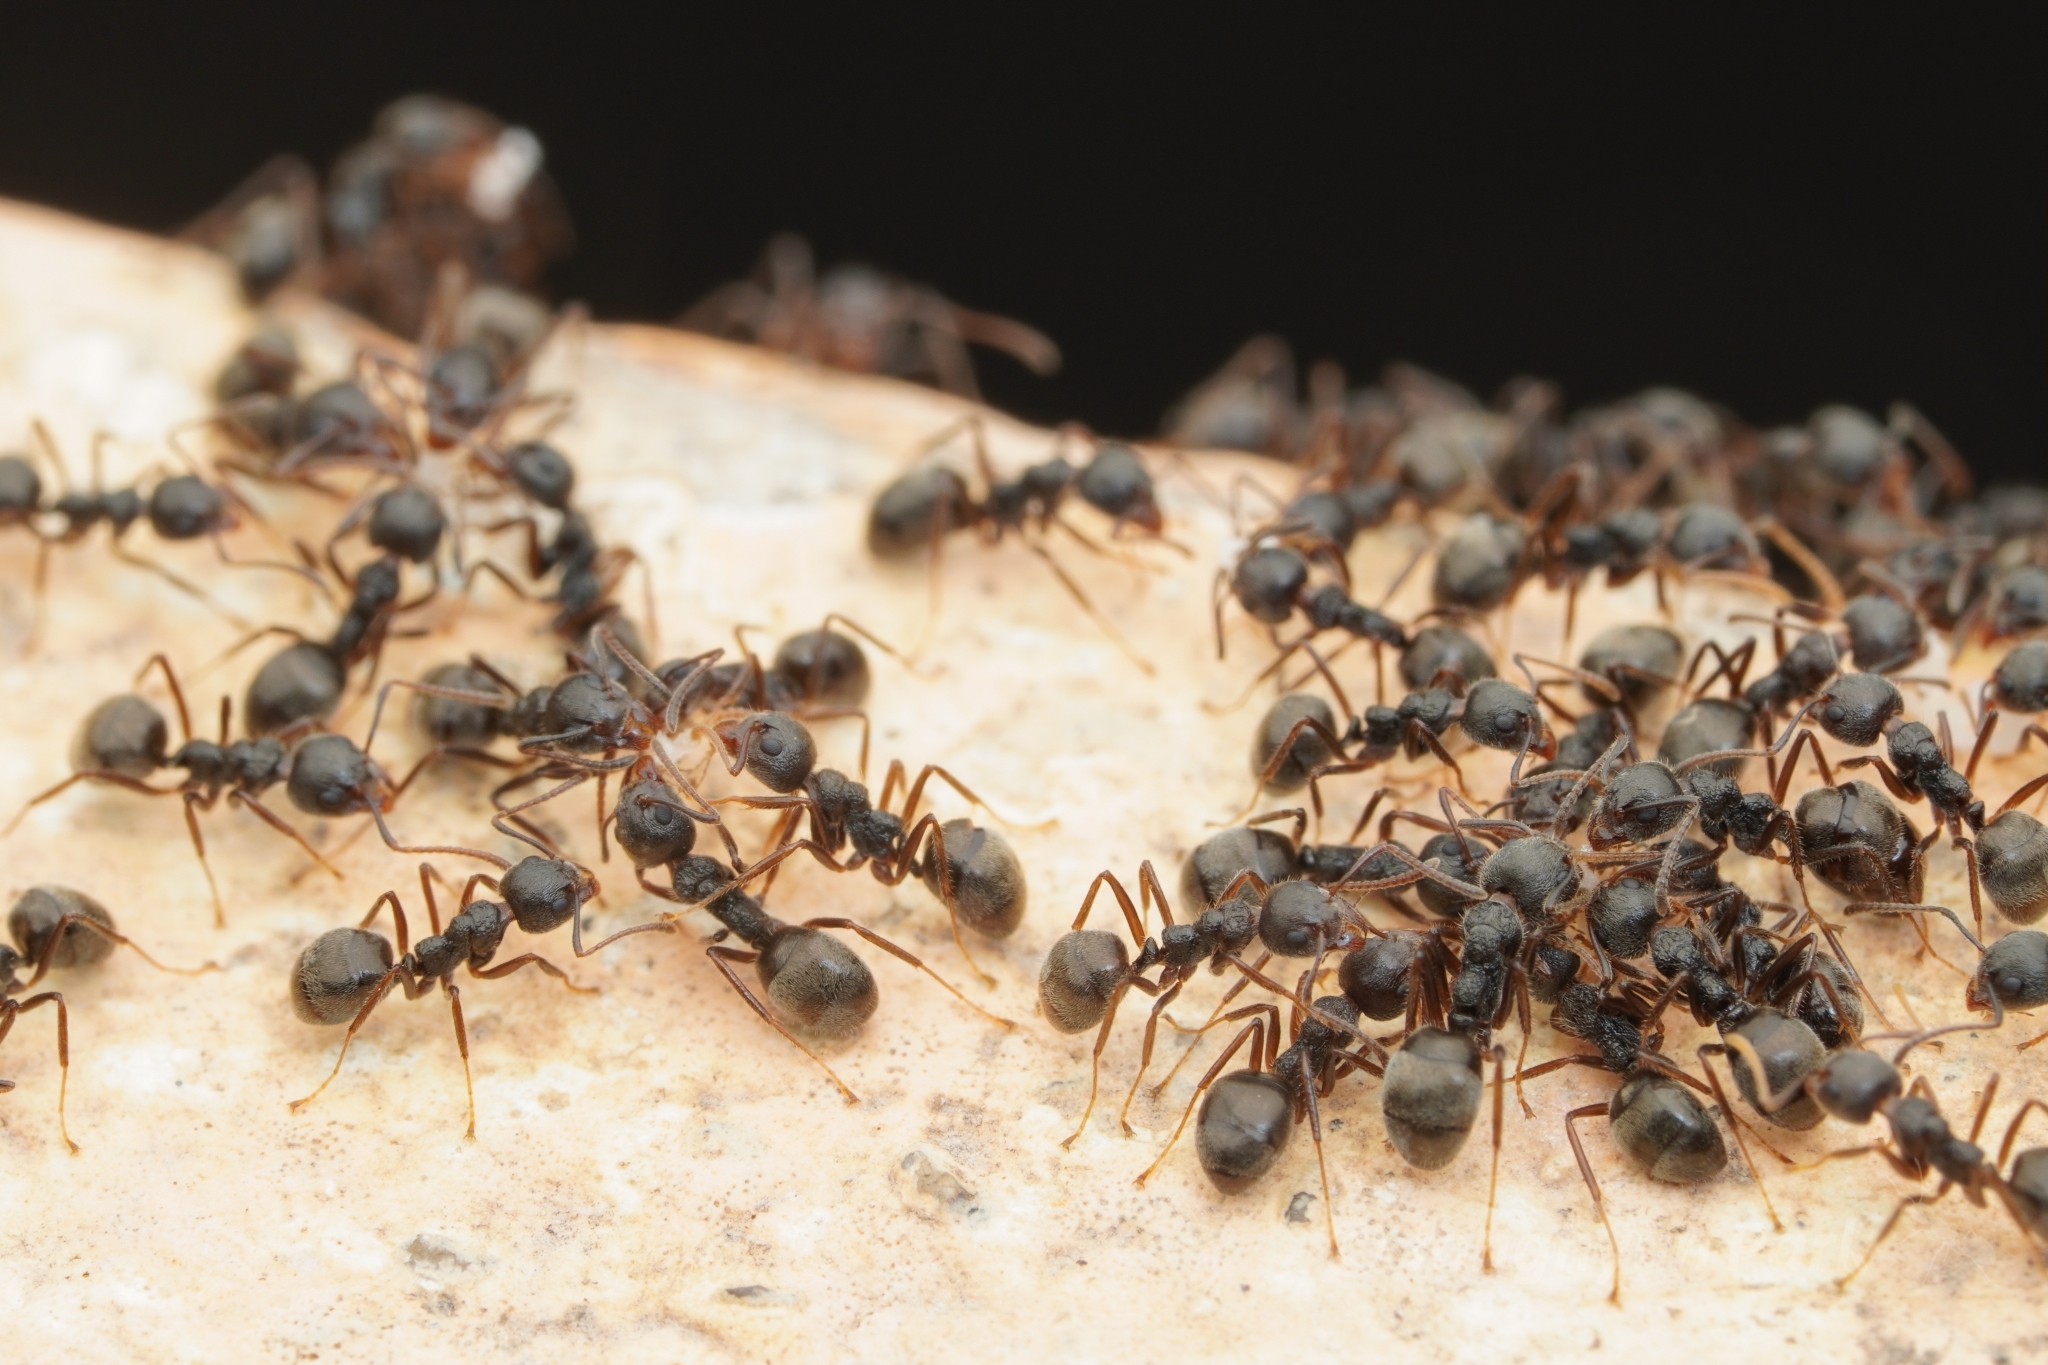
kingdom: Animalia
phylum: Arthropoda
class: Insecta
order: Hymenoptera
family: Formicidae
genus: Dolichoderus
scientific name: Dolichoderus thoracicus
